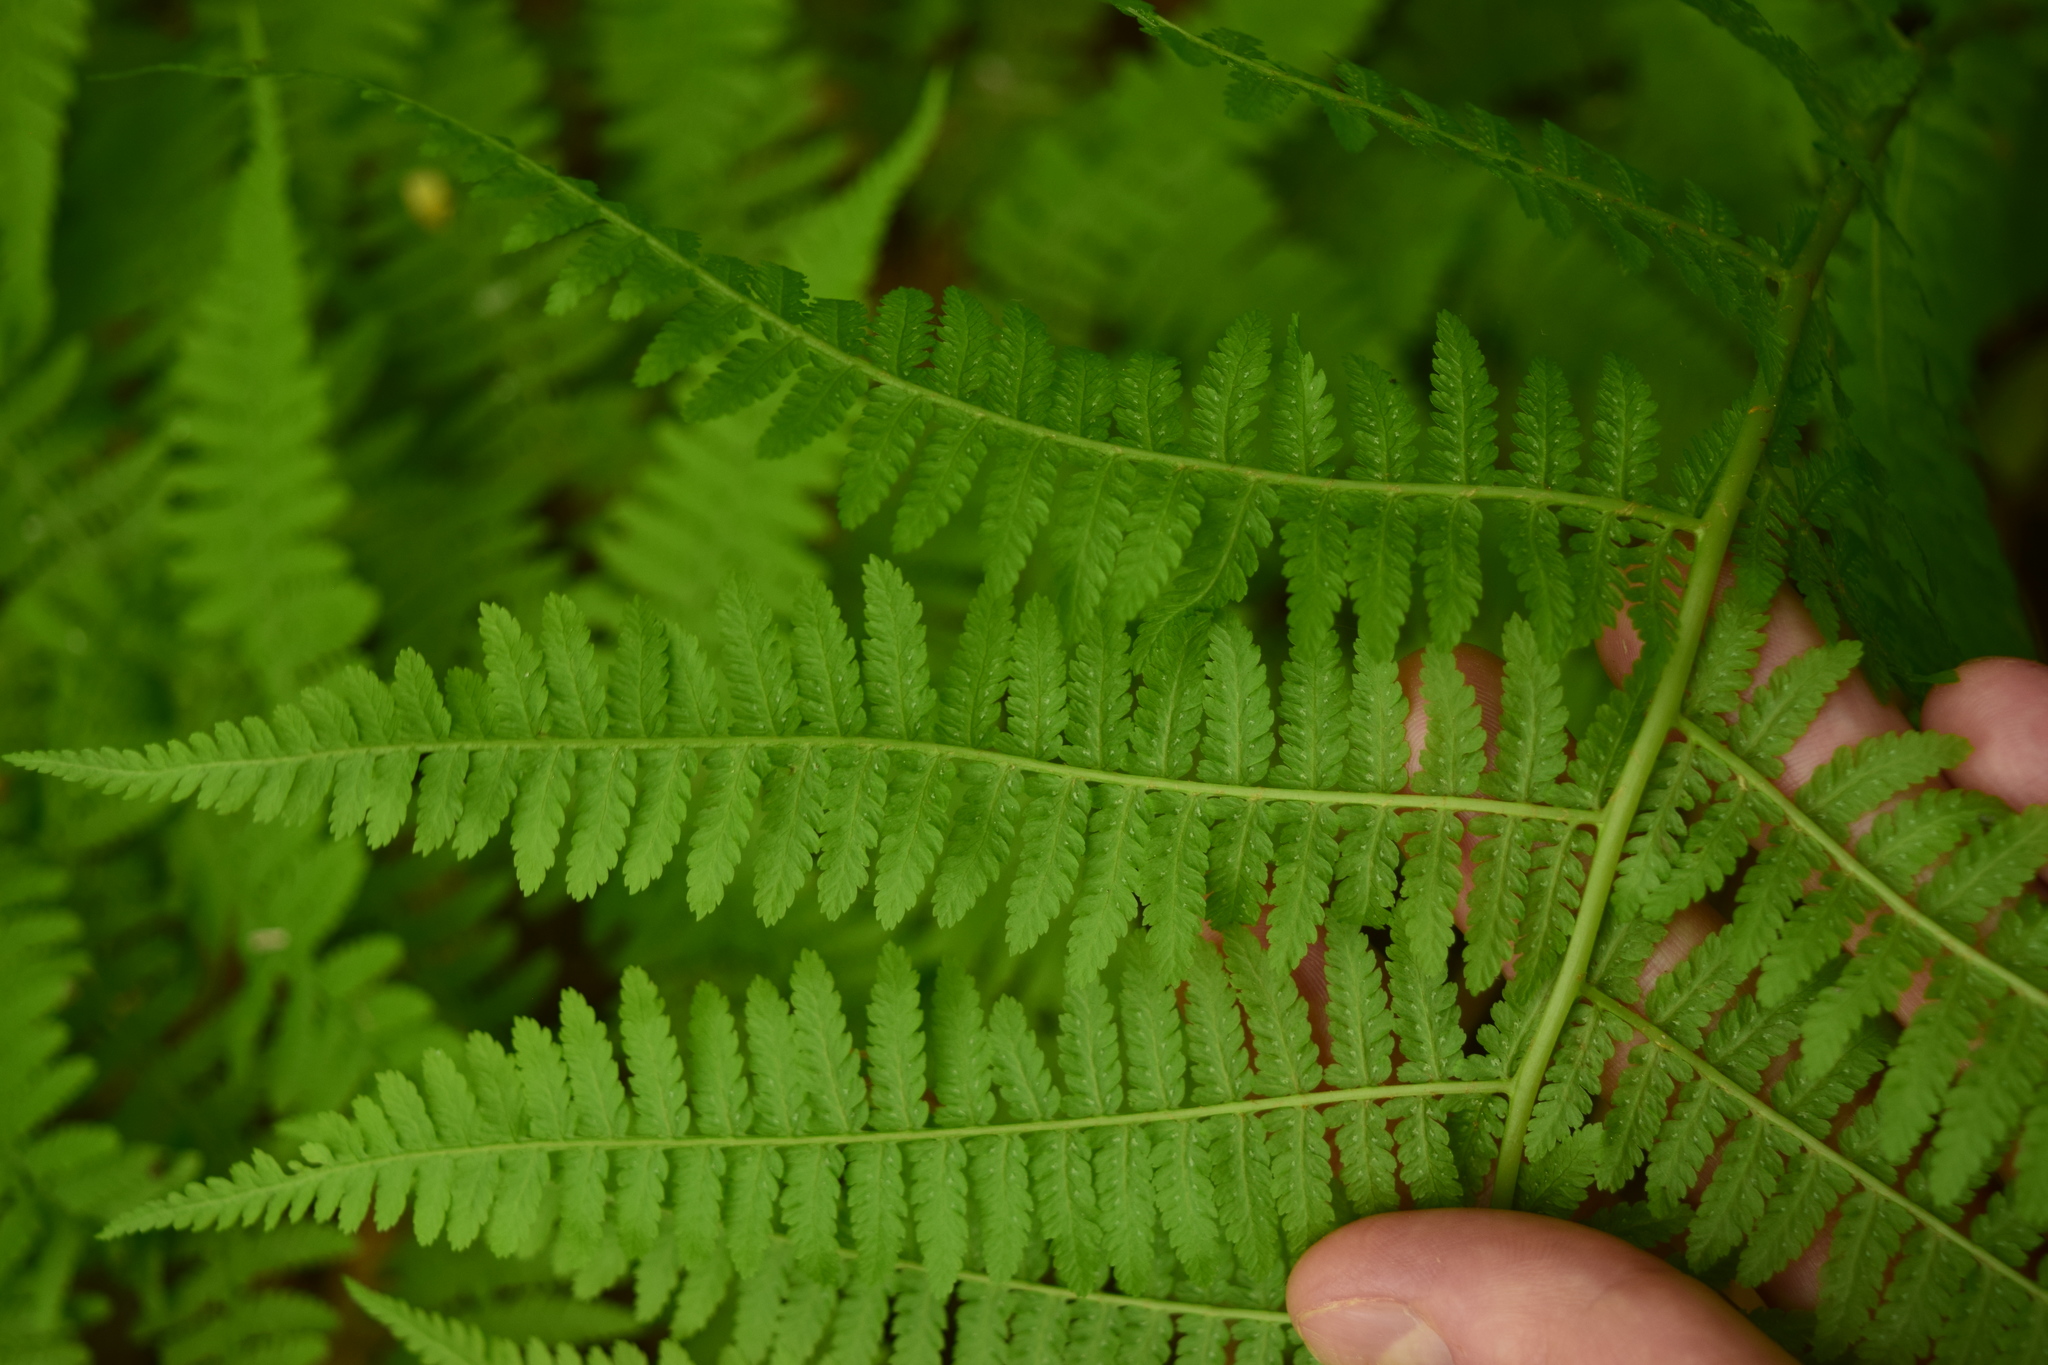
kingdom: Plantae
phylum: Tracheophyta
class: Polypodiopsida
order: Polypodiales
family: Athyriaceae
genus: Athyrium
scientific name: Athyrium filix-femina
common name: Lady fern
